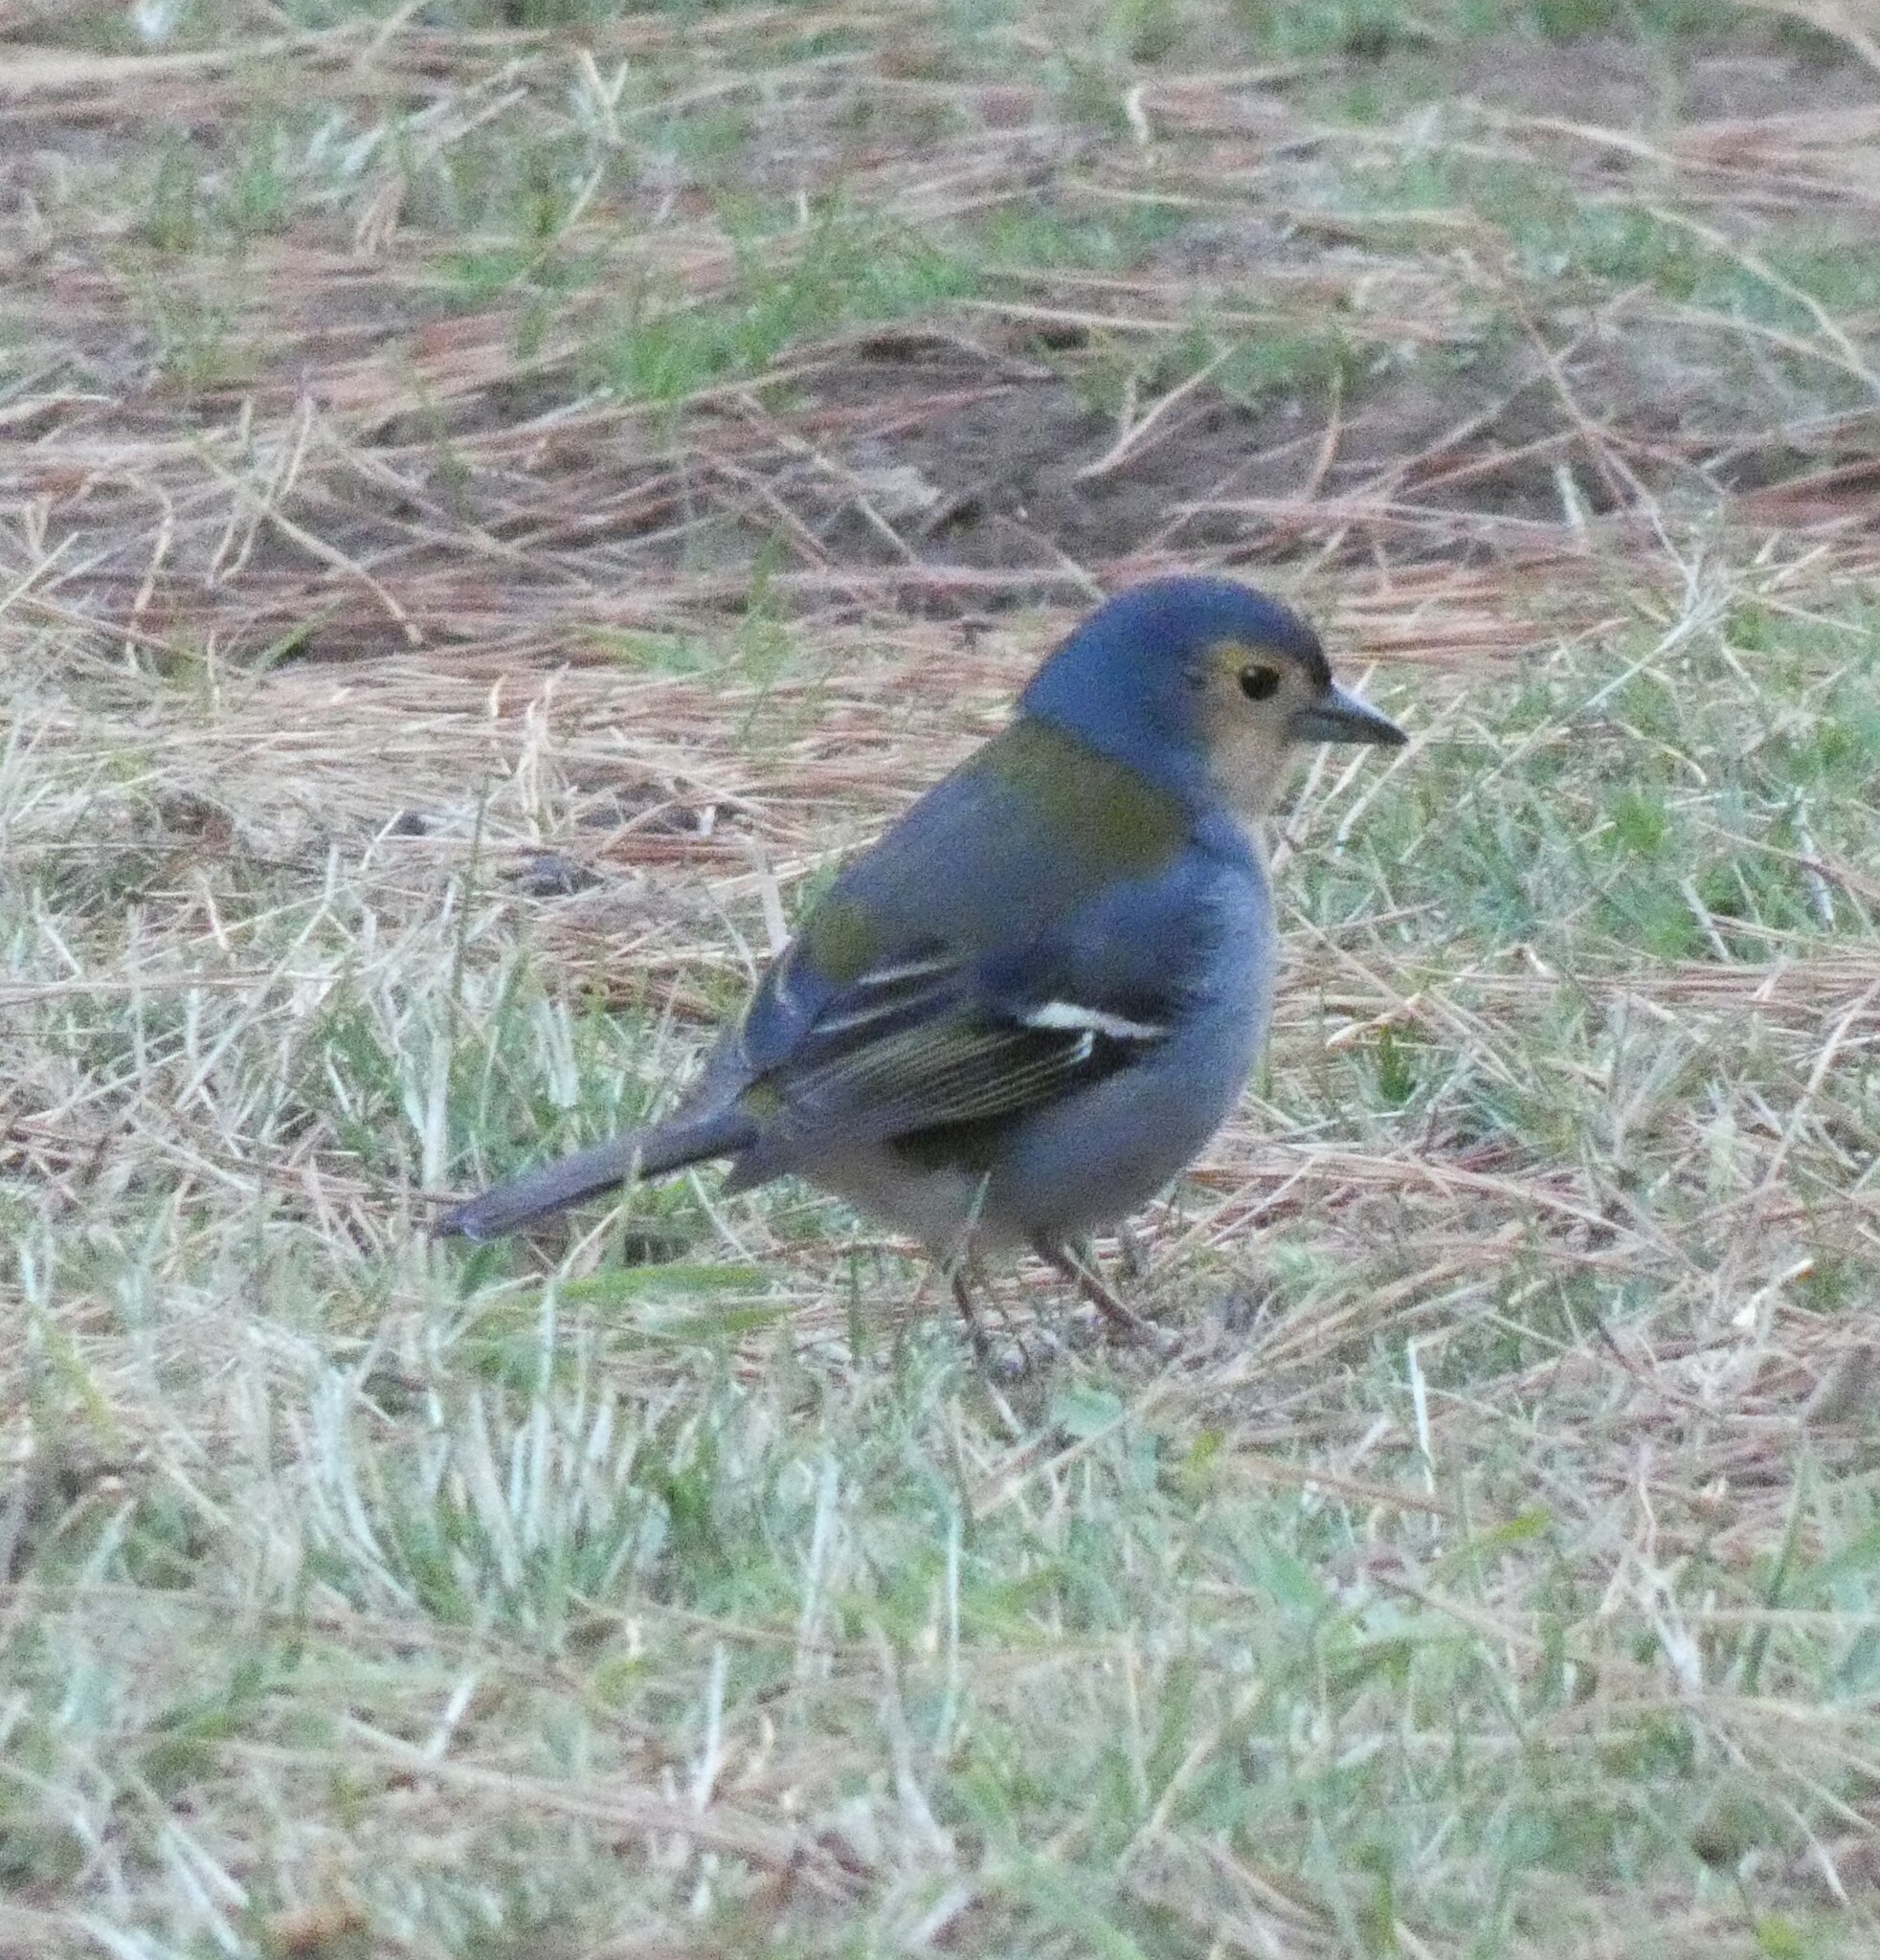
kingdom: Animalia
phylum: Chordata
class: Aves
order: Passeriformes
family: Fringillidae
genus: Fringilla
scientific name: Fringilla maderensis
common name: Madeira chaffinch
